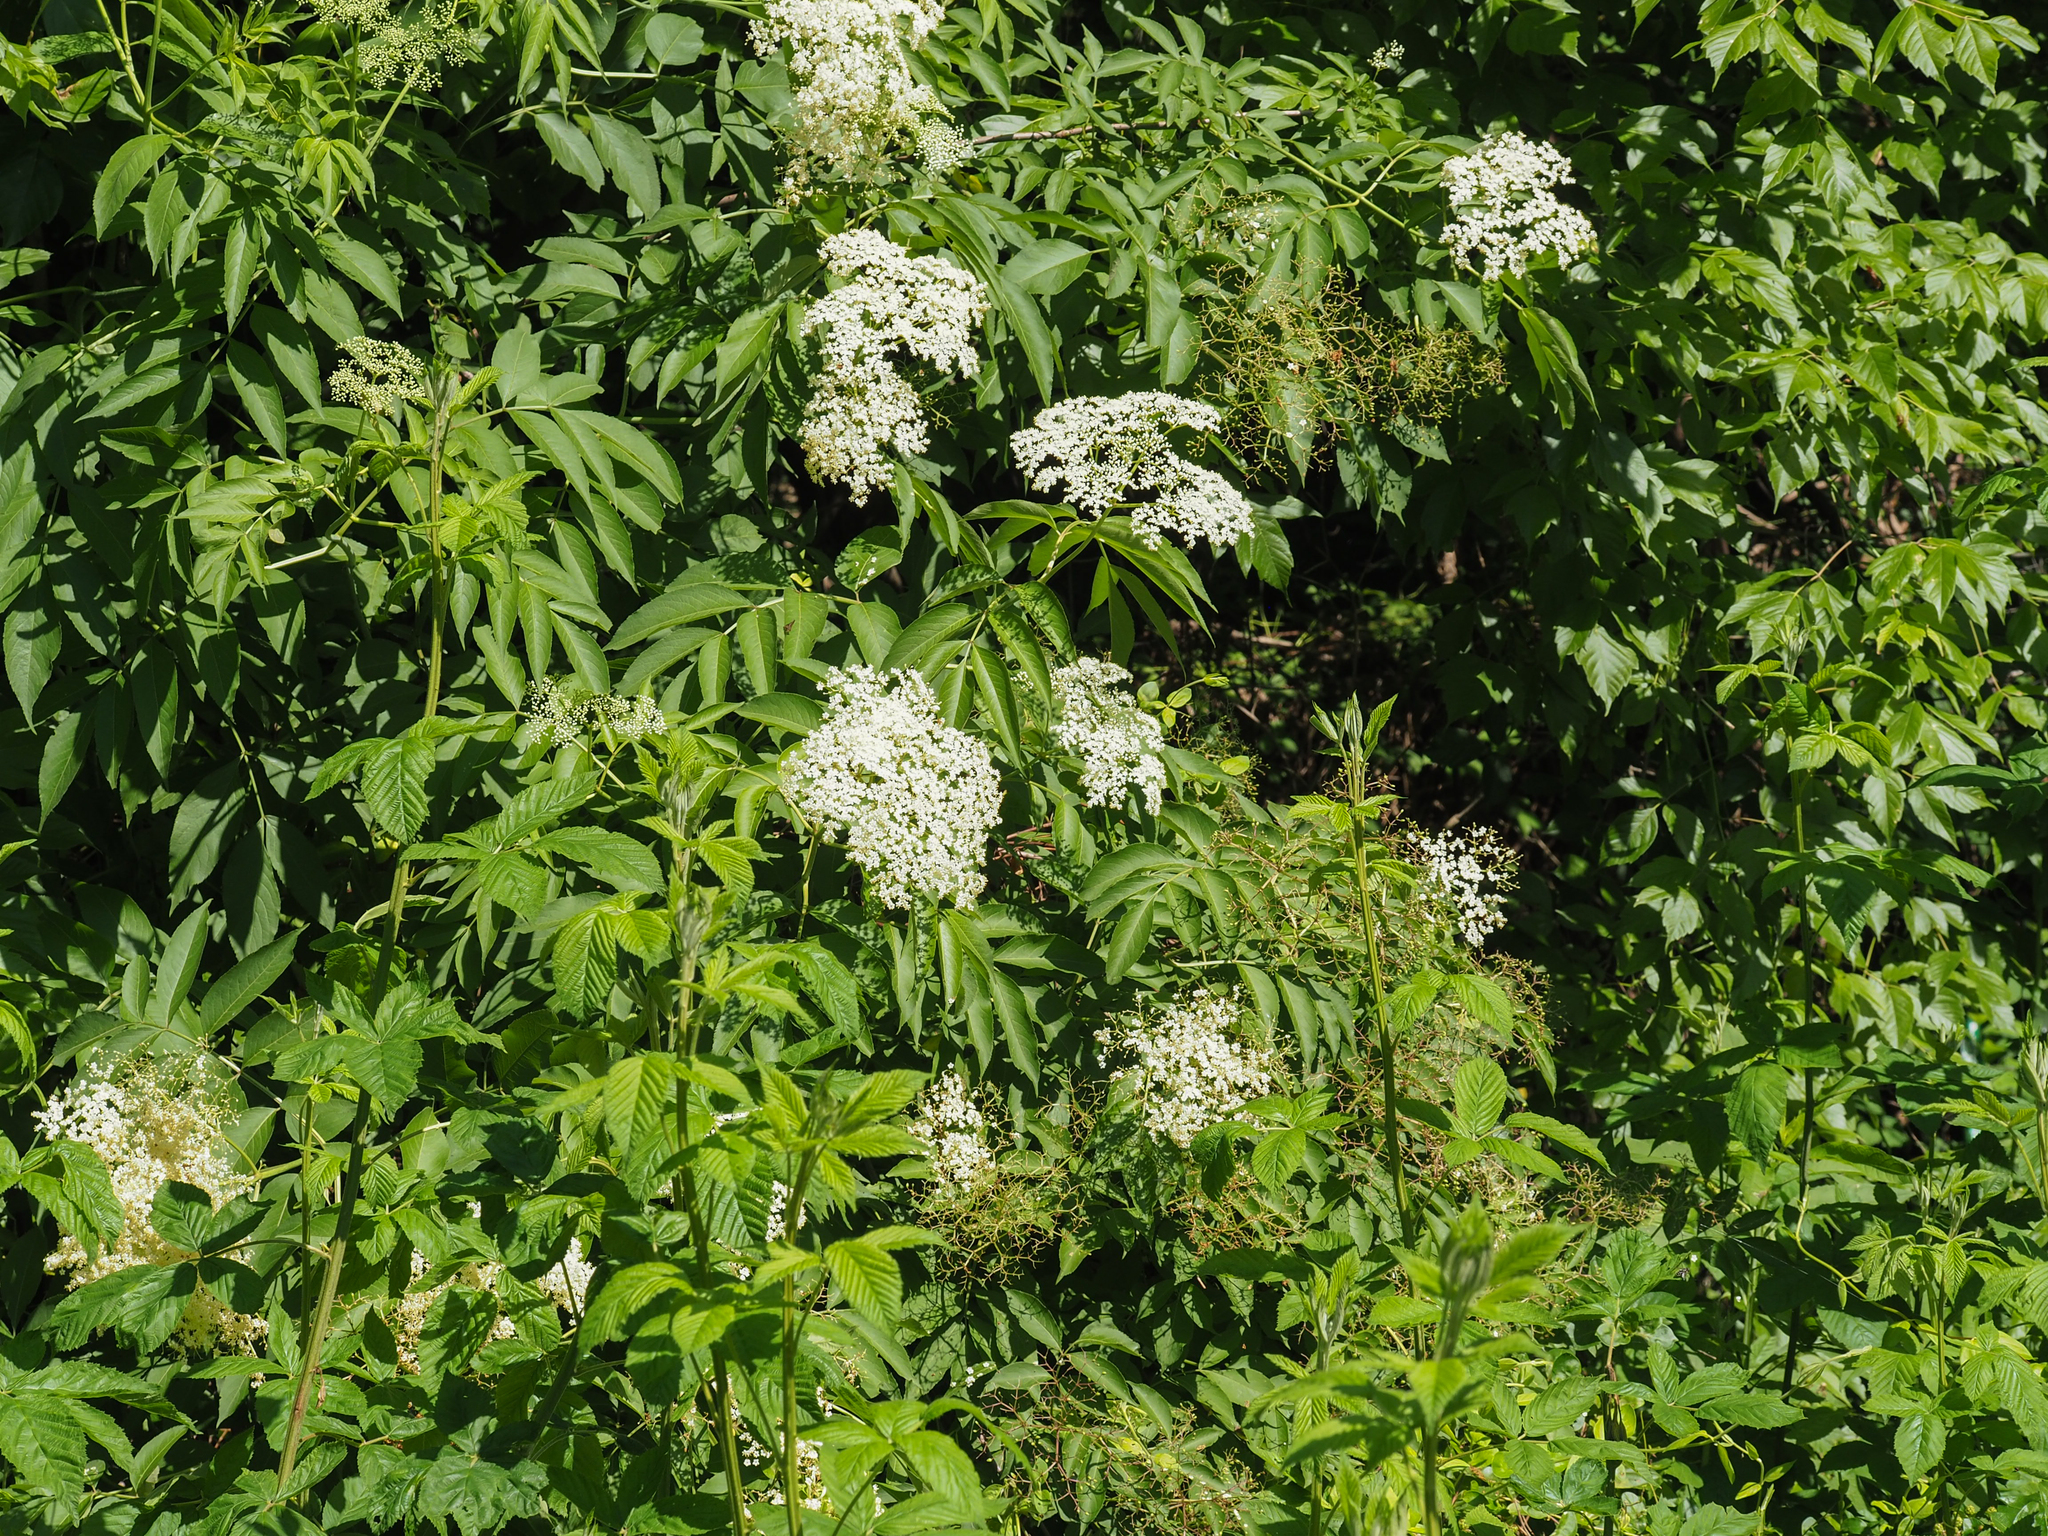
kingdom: Plantae
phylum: Tracheophyta
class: Magnoliopsida
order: Dipsacales
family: Viburnaceae
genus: Sambucus
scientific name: Sambucus canadensis
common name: American elder
